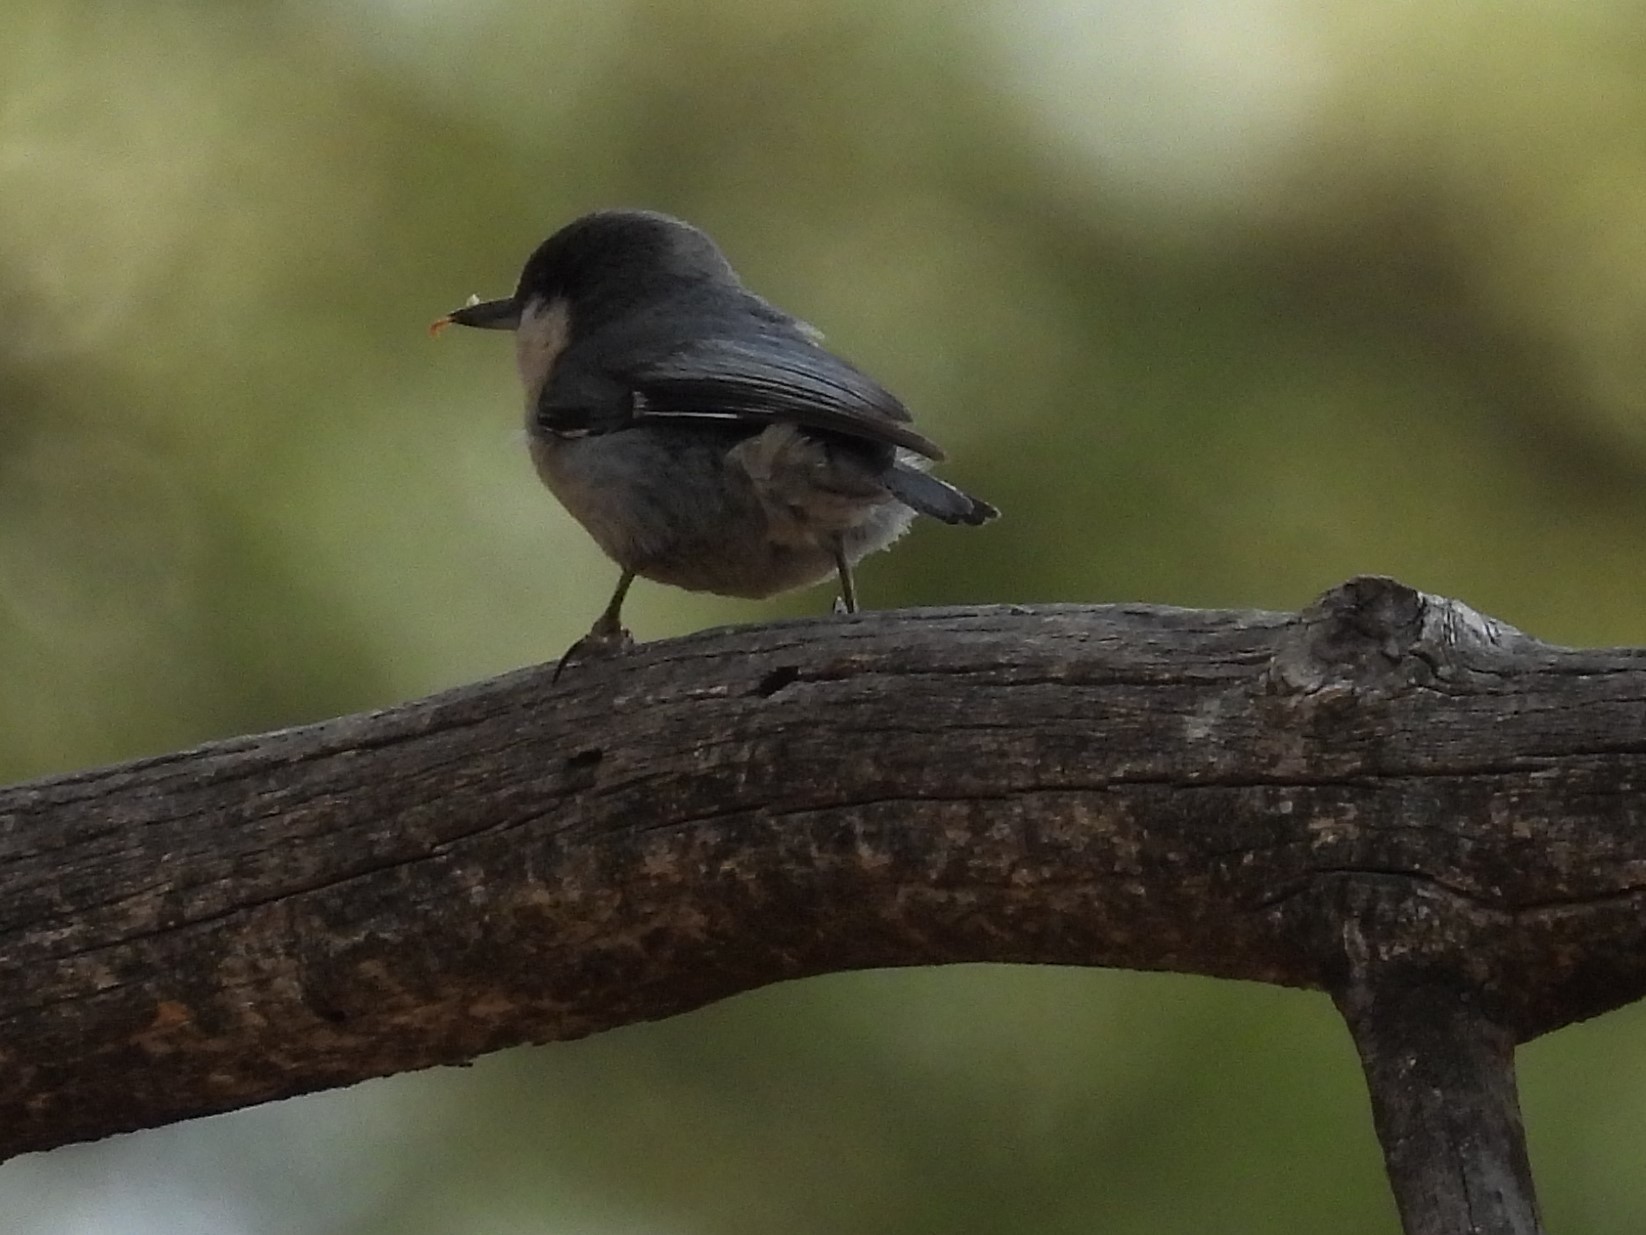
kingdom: Animalia
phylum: Chordata
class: Aves
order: Passeriformes
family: Sittidae
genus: Sitta
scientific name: Sitta pygmaea
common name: Pygmy nuthatch
